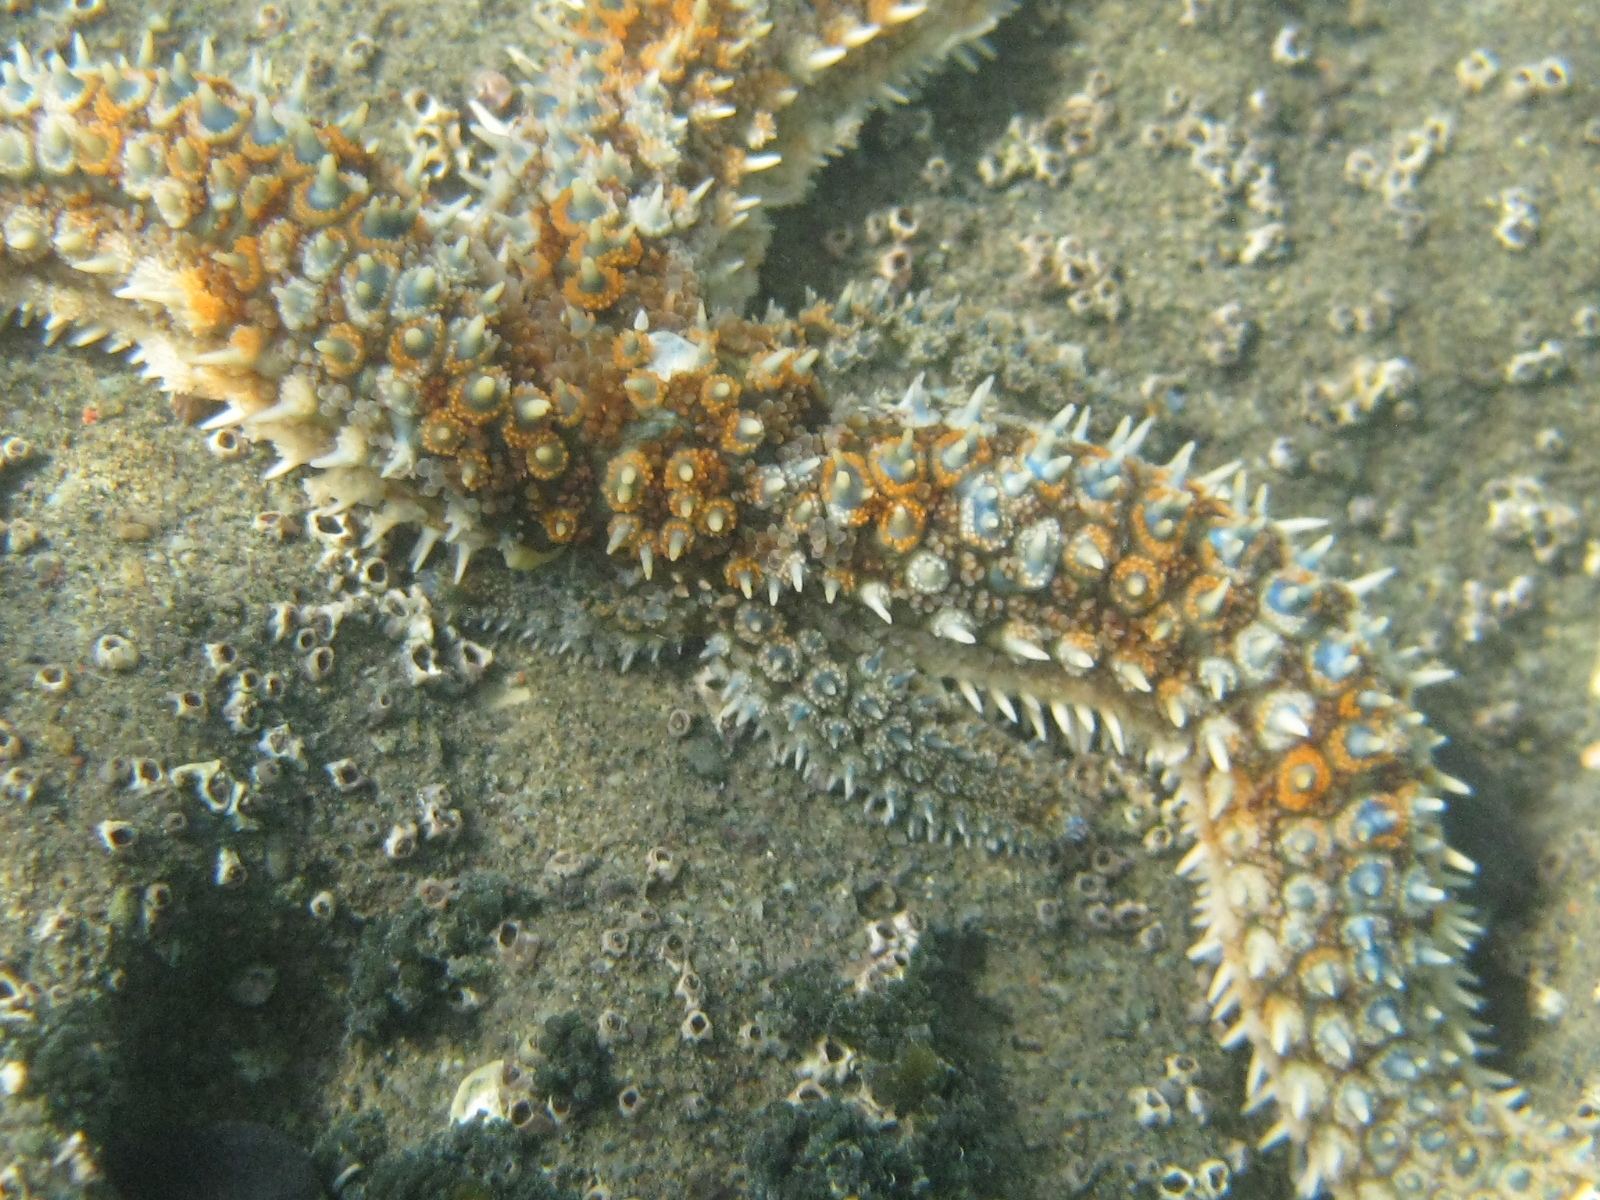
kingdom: Animalia
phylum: Echinodermata
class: Asteroidea
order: Forcipulatida
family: Asteriidae
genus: Coscinasterias
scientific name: Coscinasterias muricata
